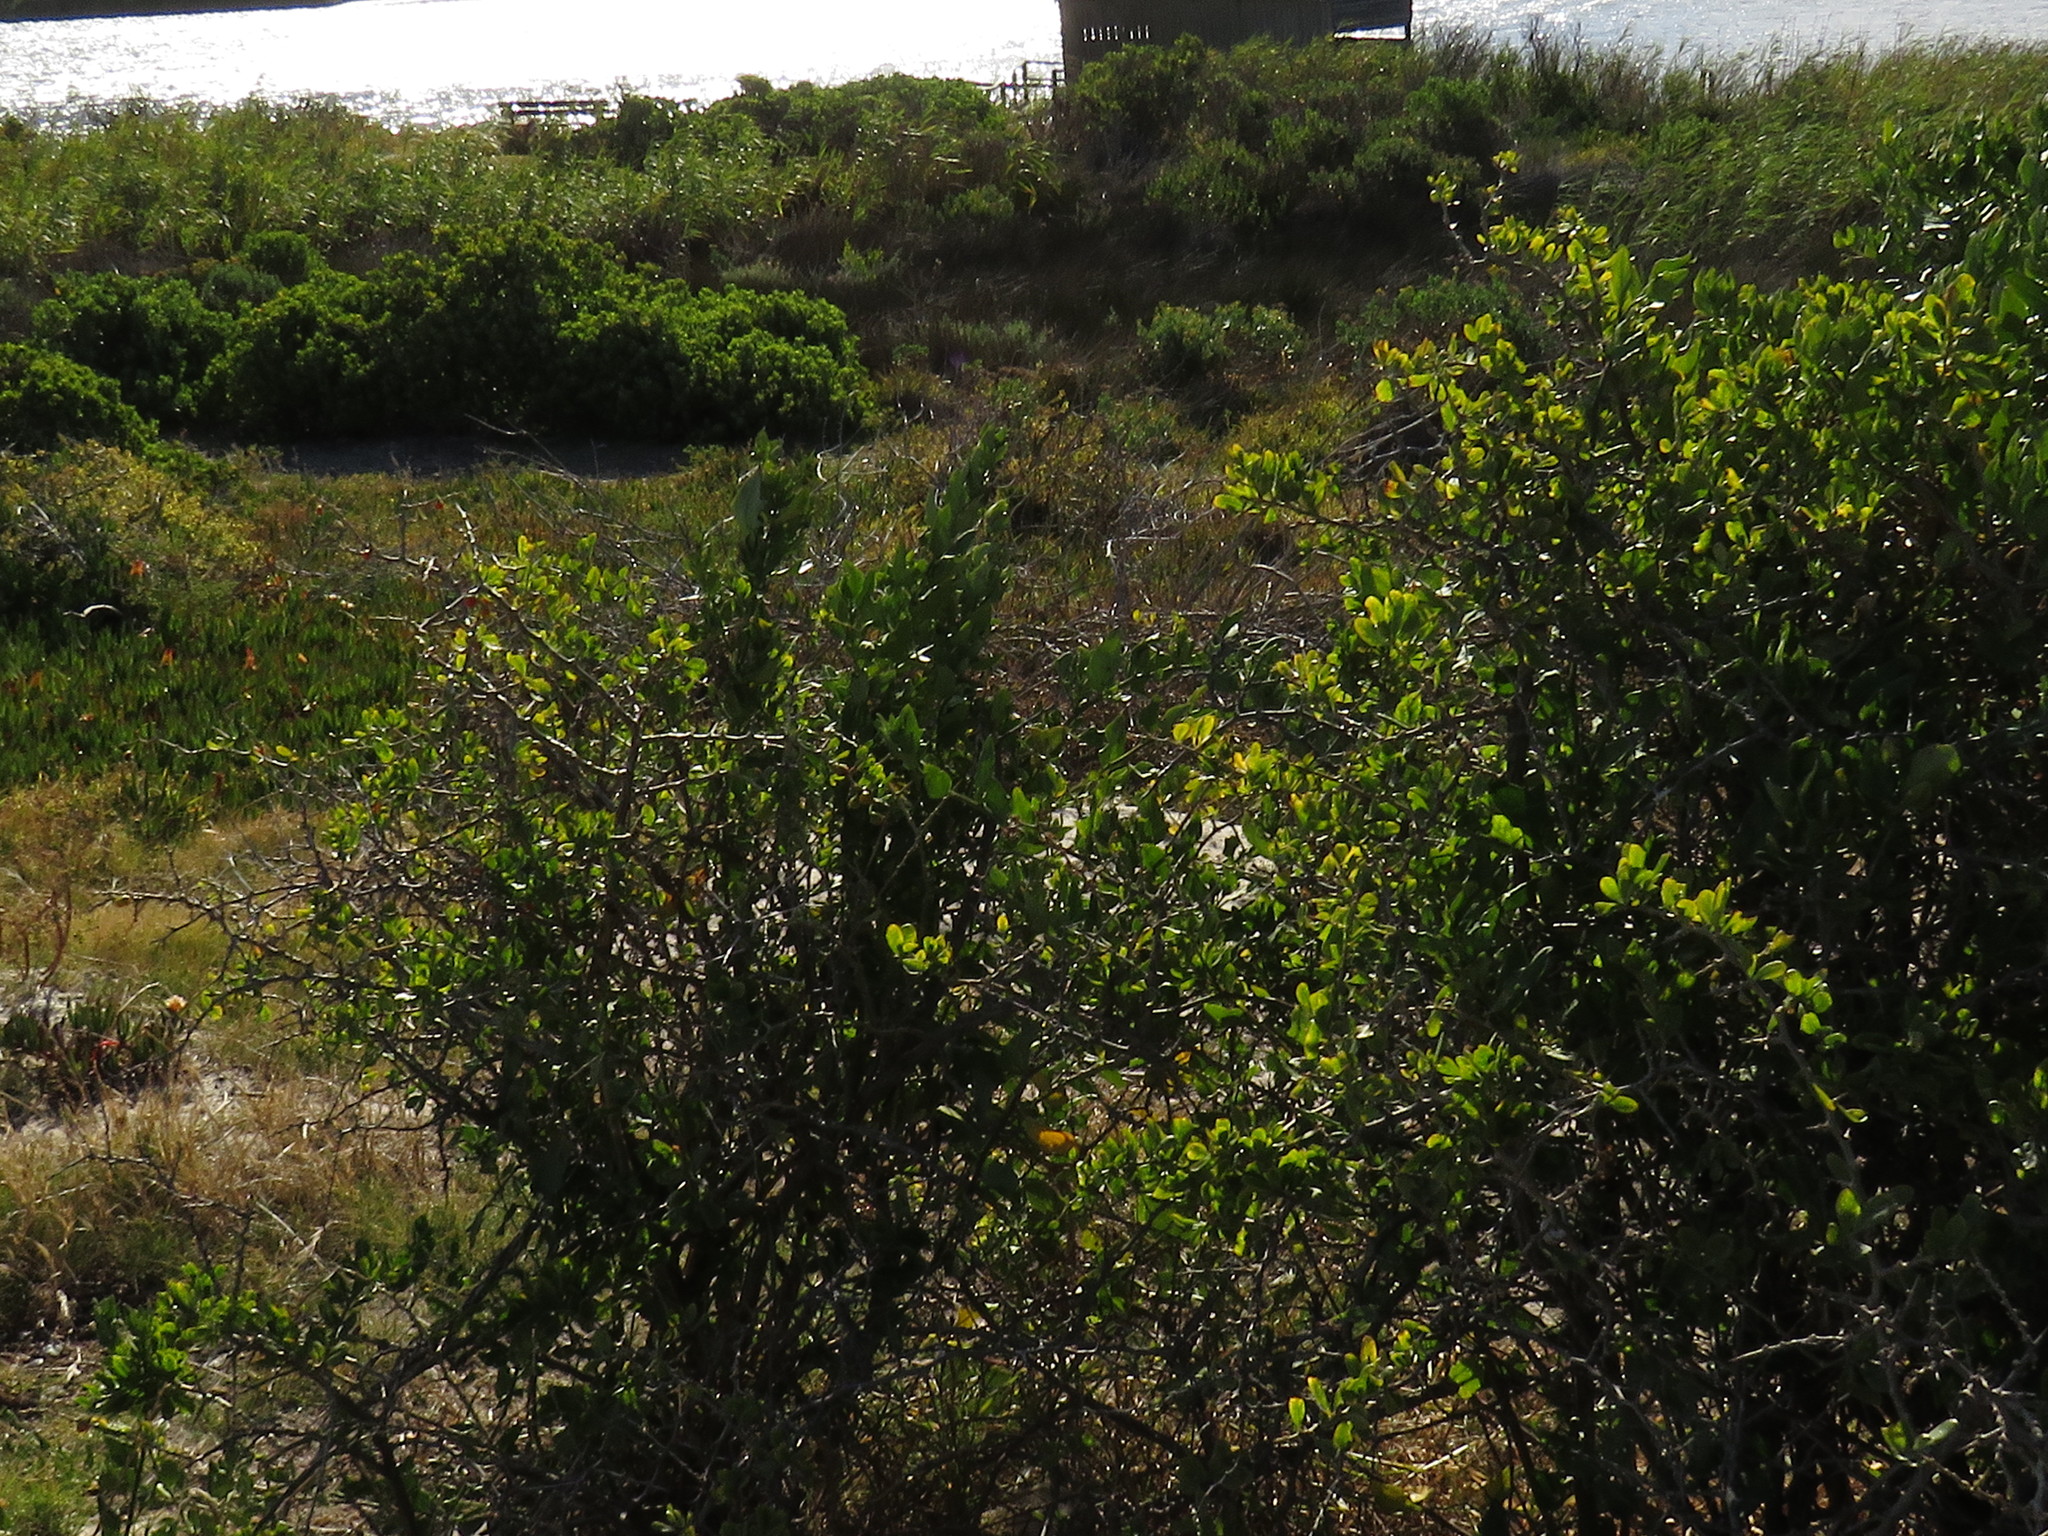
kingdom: Plantae
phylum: Tracheophyta
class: Magnoliopsida
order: Solanales
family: Solanaceae
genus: Lycium
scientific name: Lycium ferocissimum
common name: African boxthorn
